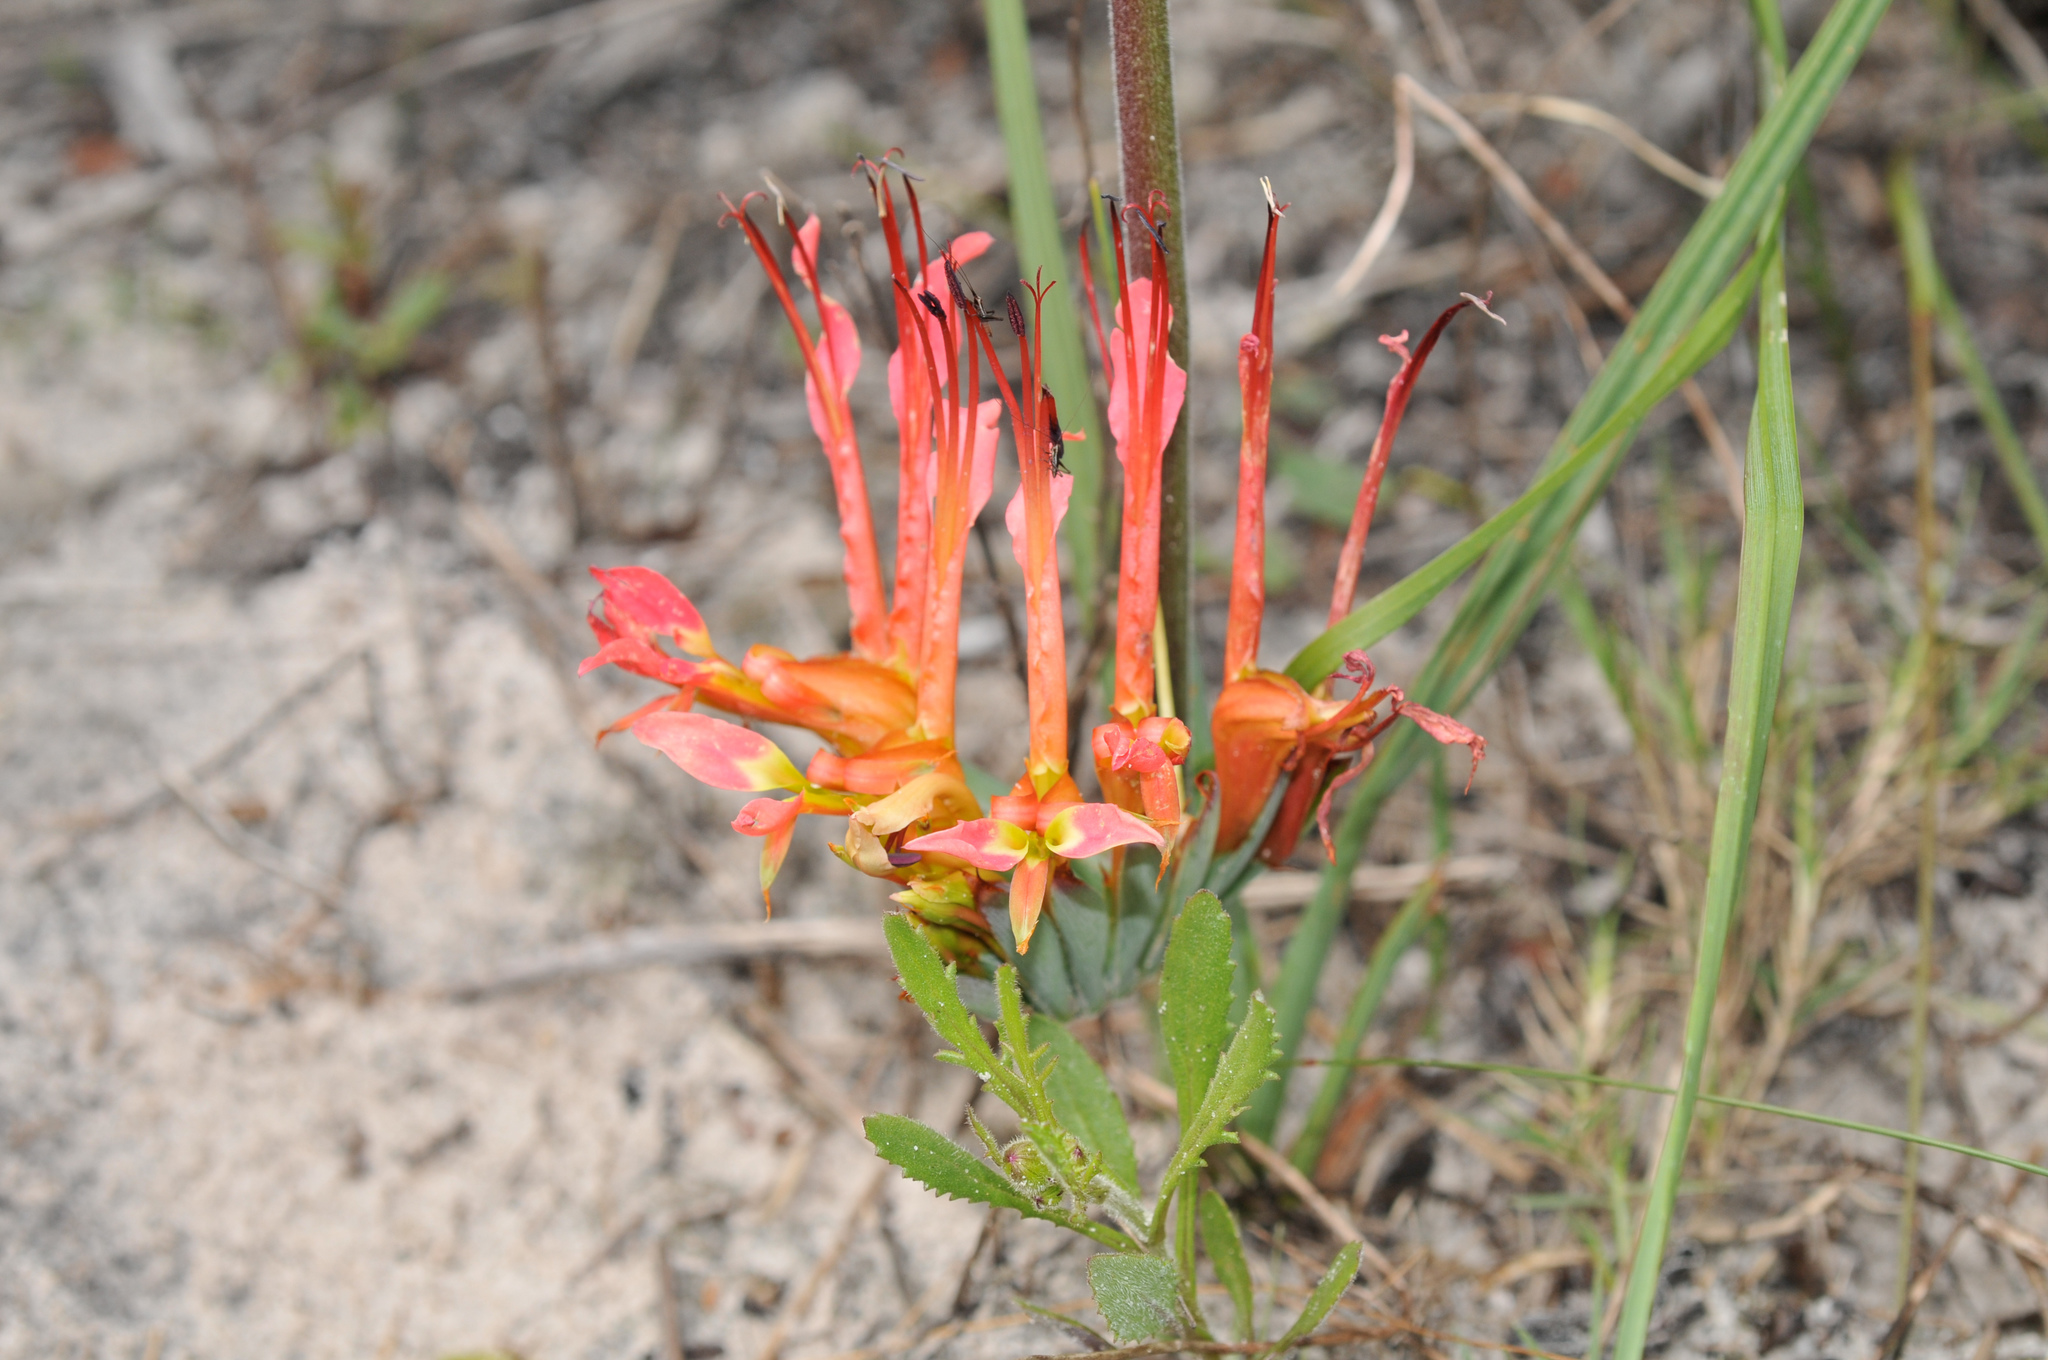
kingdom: Plantae
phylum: Tracheophyta
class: Liliopsida
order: Asparagales
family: Iridaceae
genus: Babiana
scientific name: Babiana ringens
